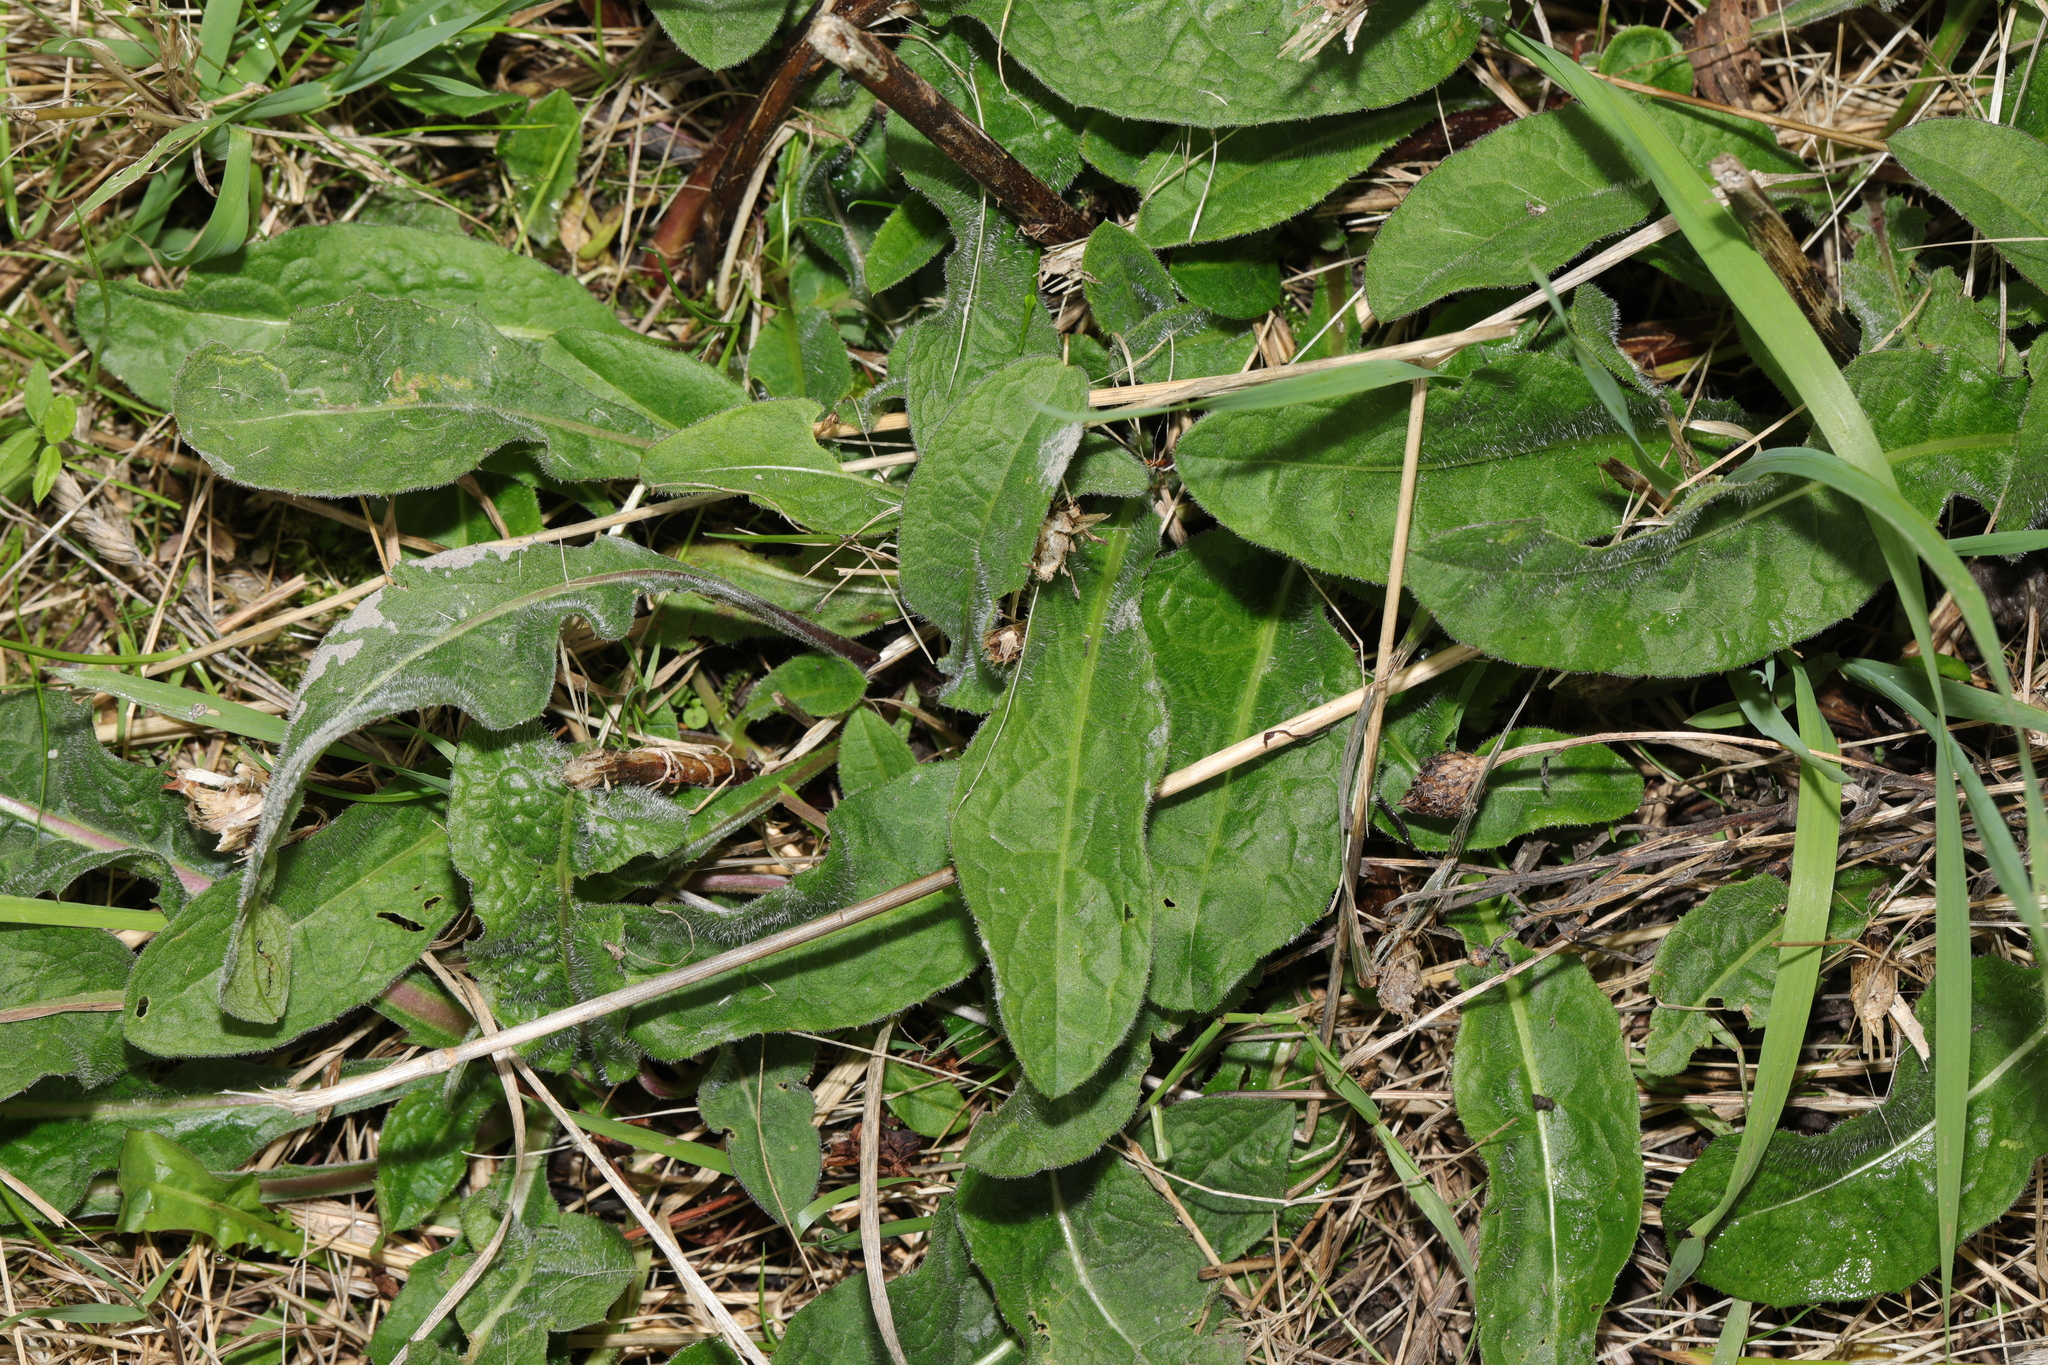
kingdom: Plantae
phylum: Tracheophyta
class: Magnoliopsida
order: Asterales
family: Asteraceae
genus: Centaurea
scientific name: Centaurea nigra
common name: Lesser knapweed
